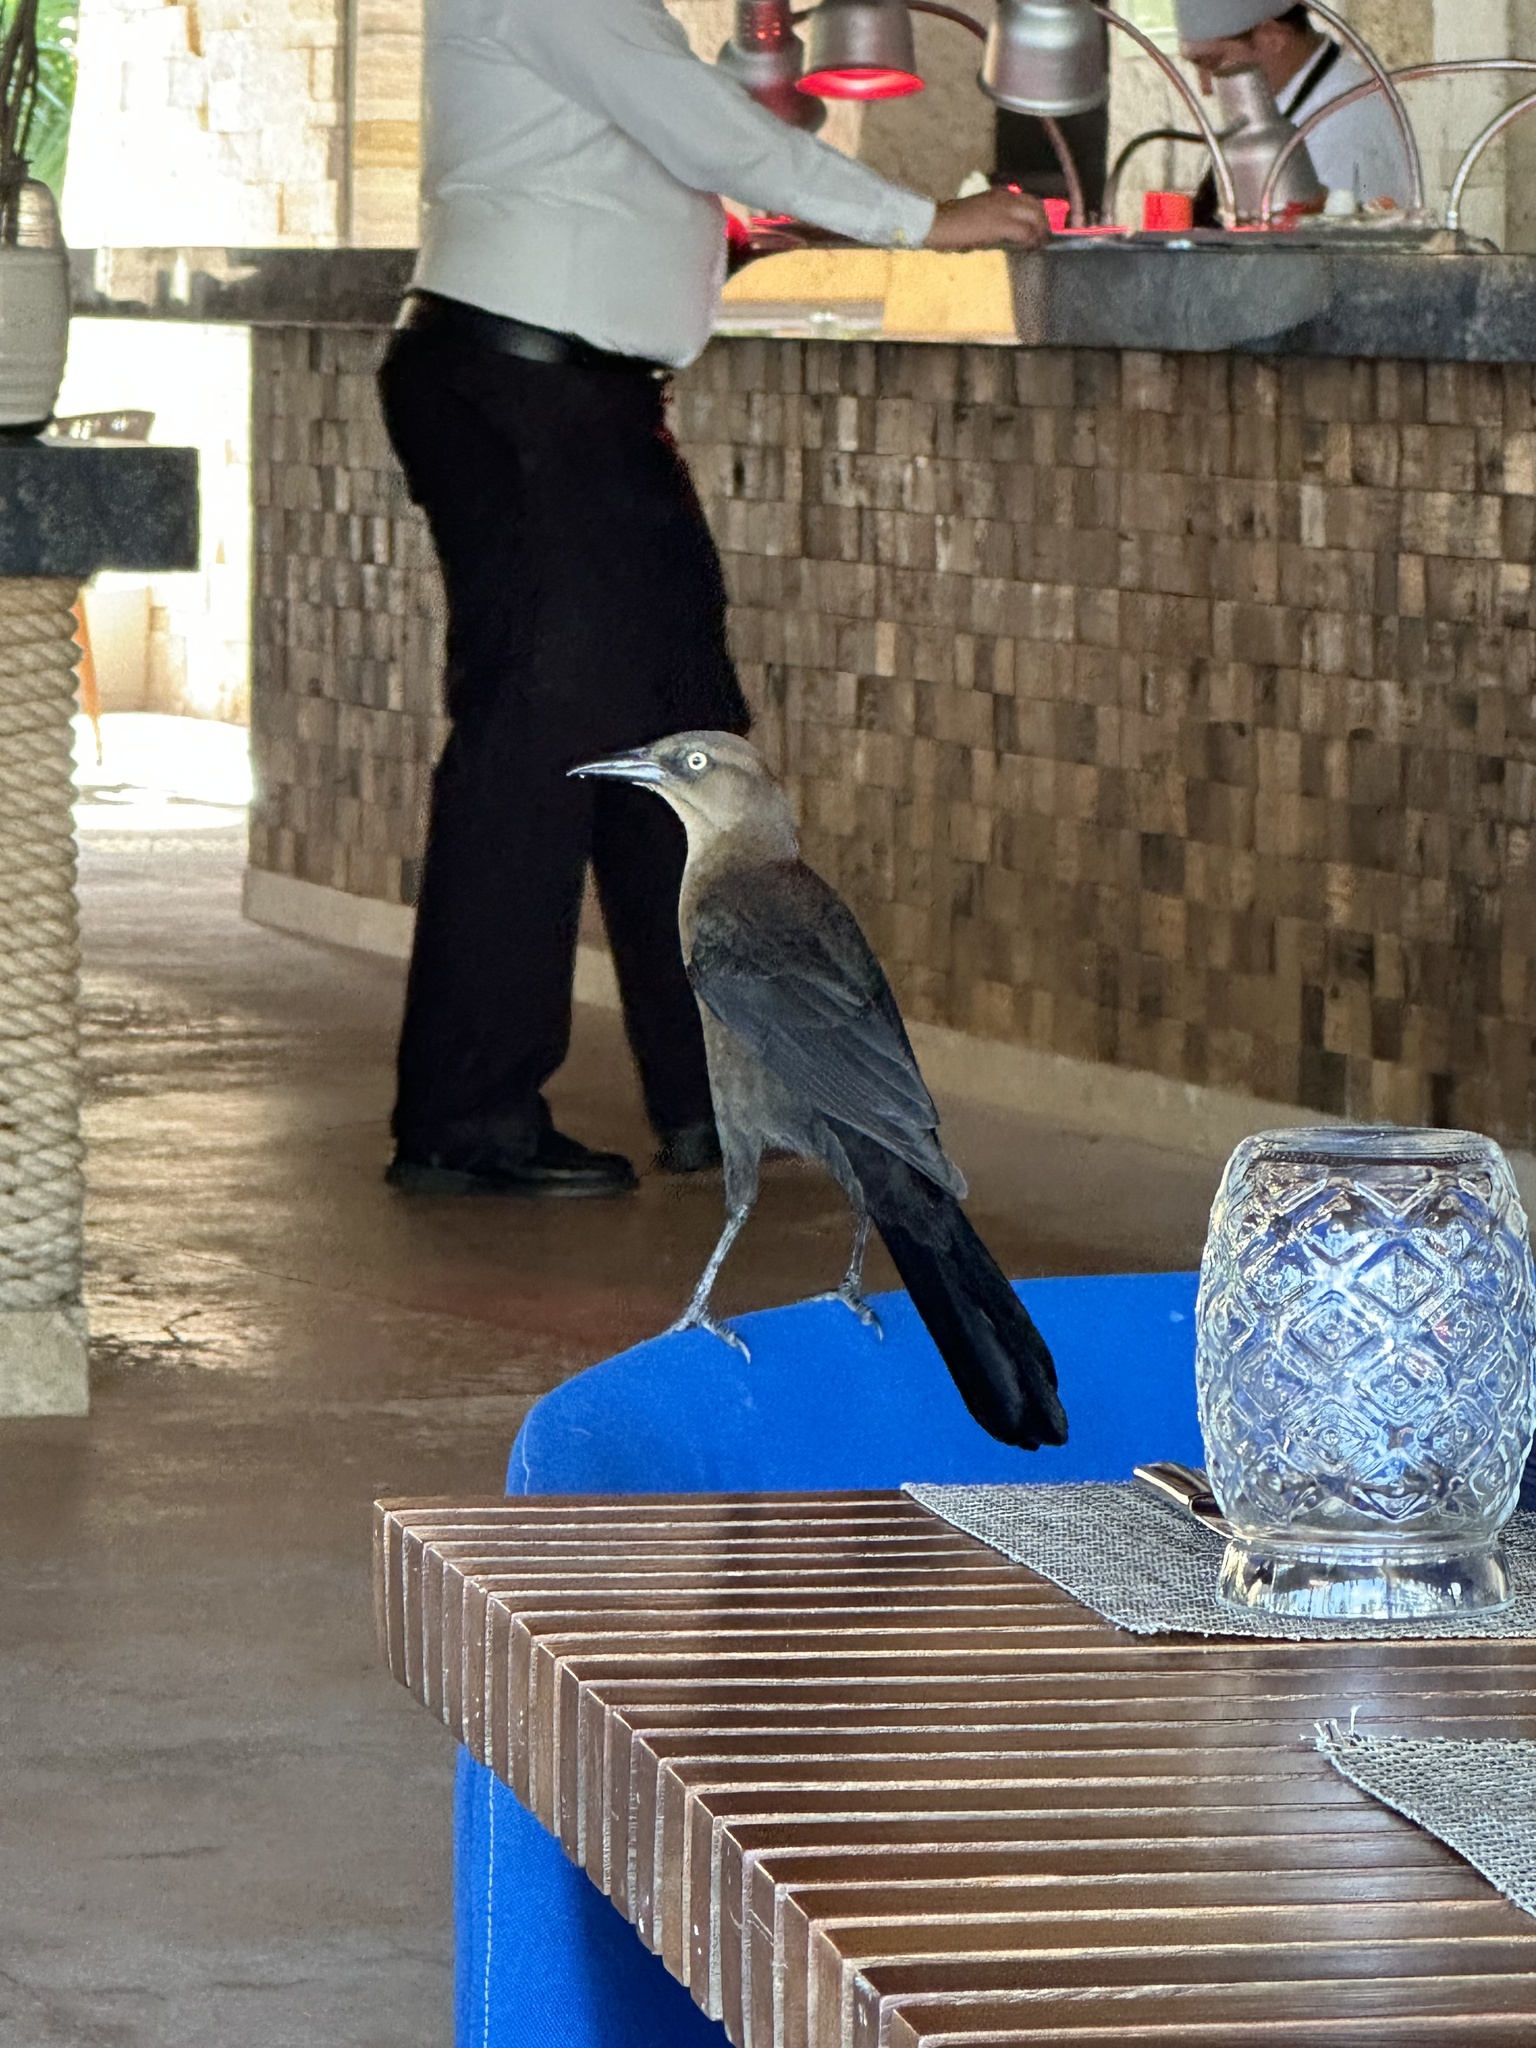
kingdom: Animalia
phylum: Chordata
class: Aves
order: Passeriformes
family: Icteridae
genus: Quiscalus
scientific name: Quiscalus mexicanus
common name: Great-tailed grackle
